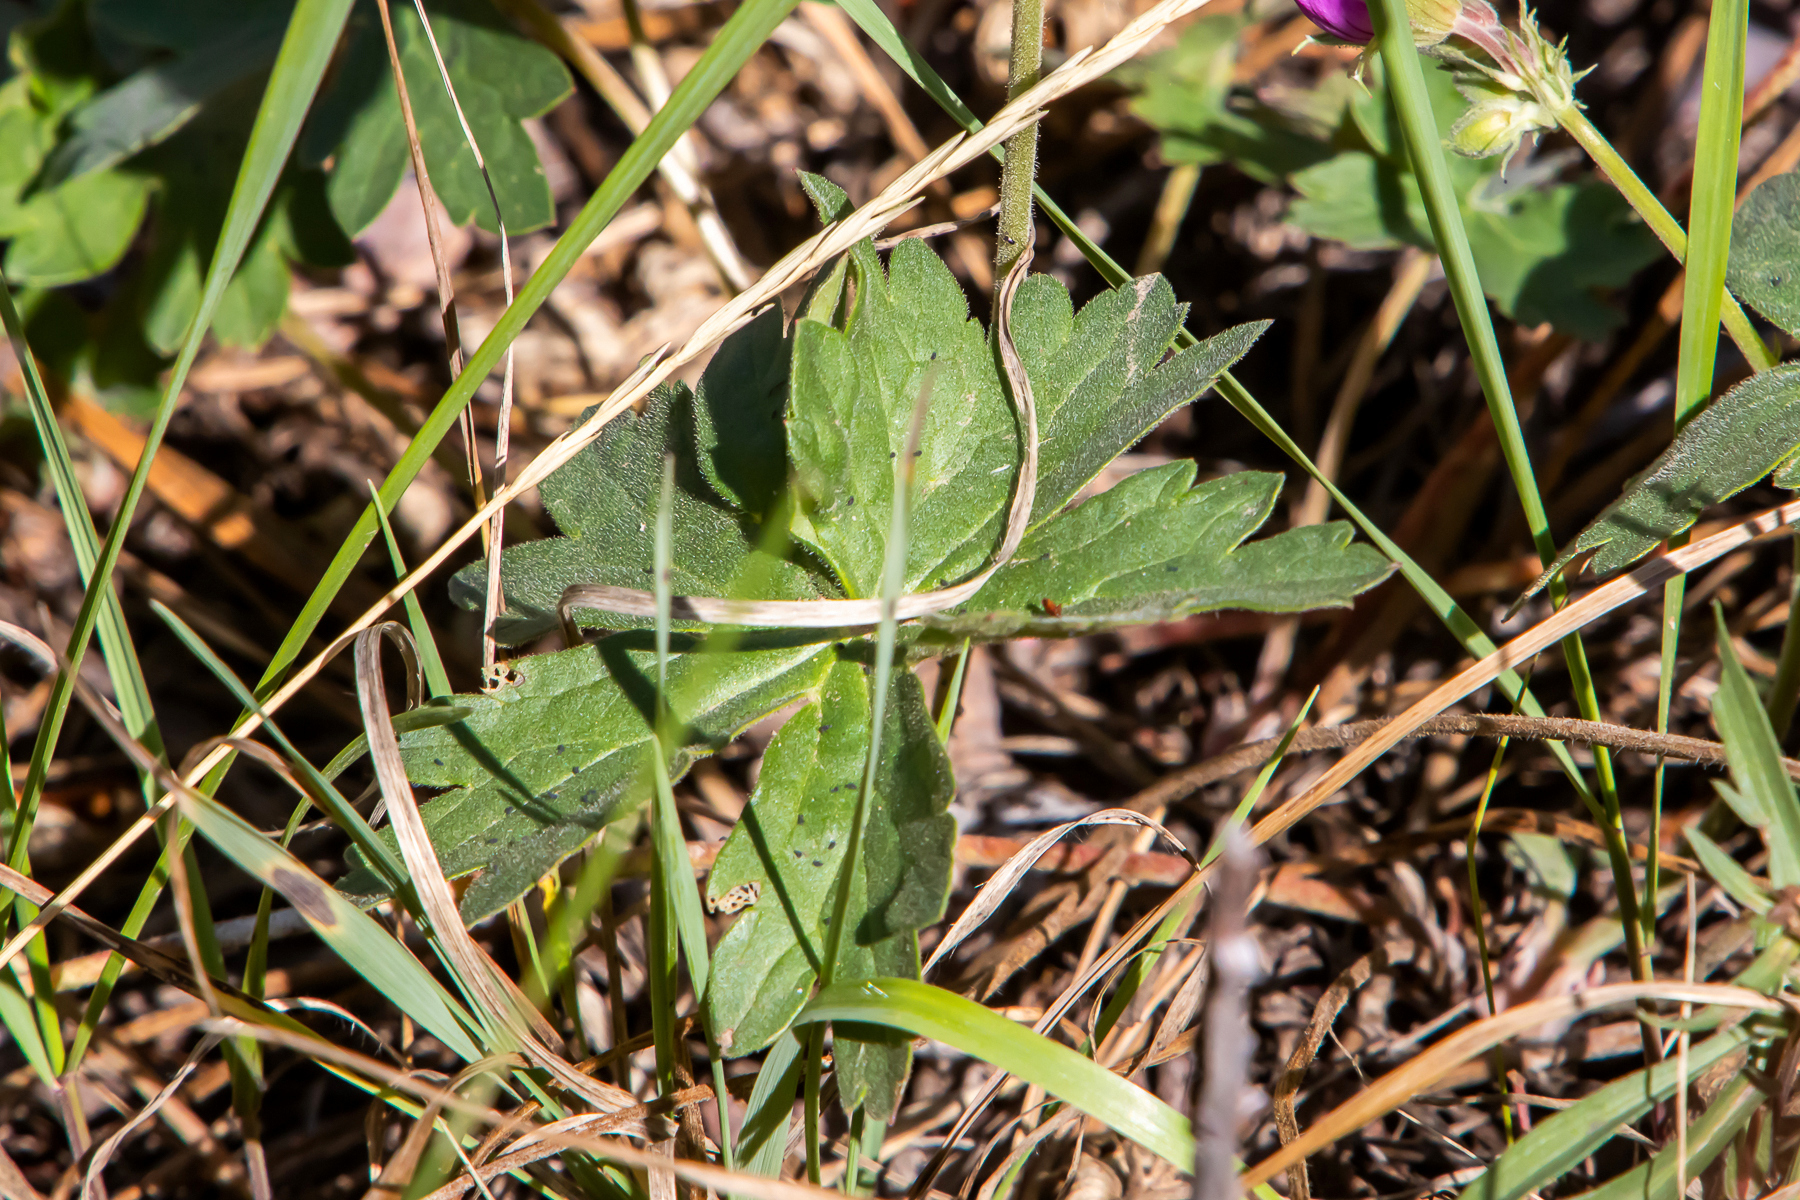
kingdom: Plantae
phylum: Tracheophyta
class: Magnoliopsida
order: Geraniales
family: Geraniaceae
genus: Geranium
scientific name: Geranium viscosissimum
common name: Purple geranium
